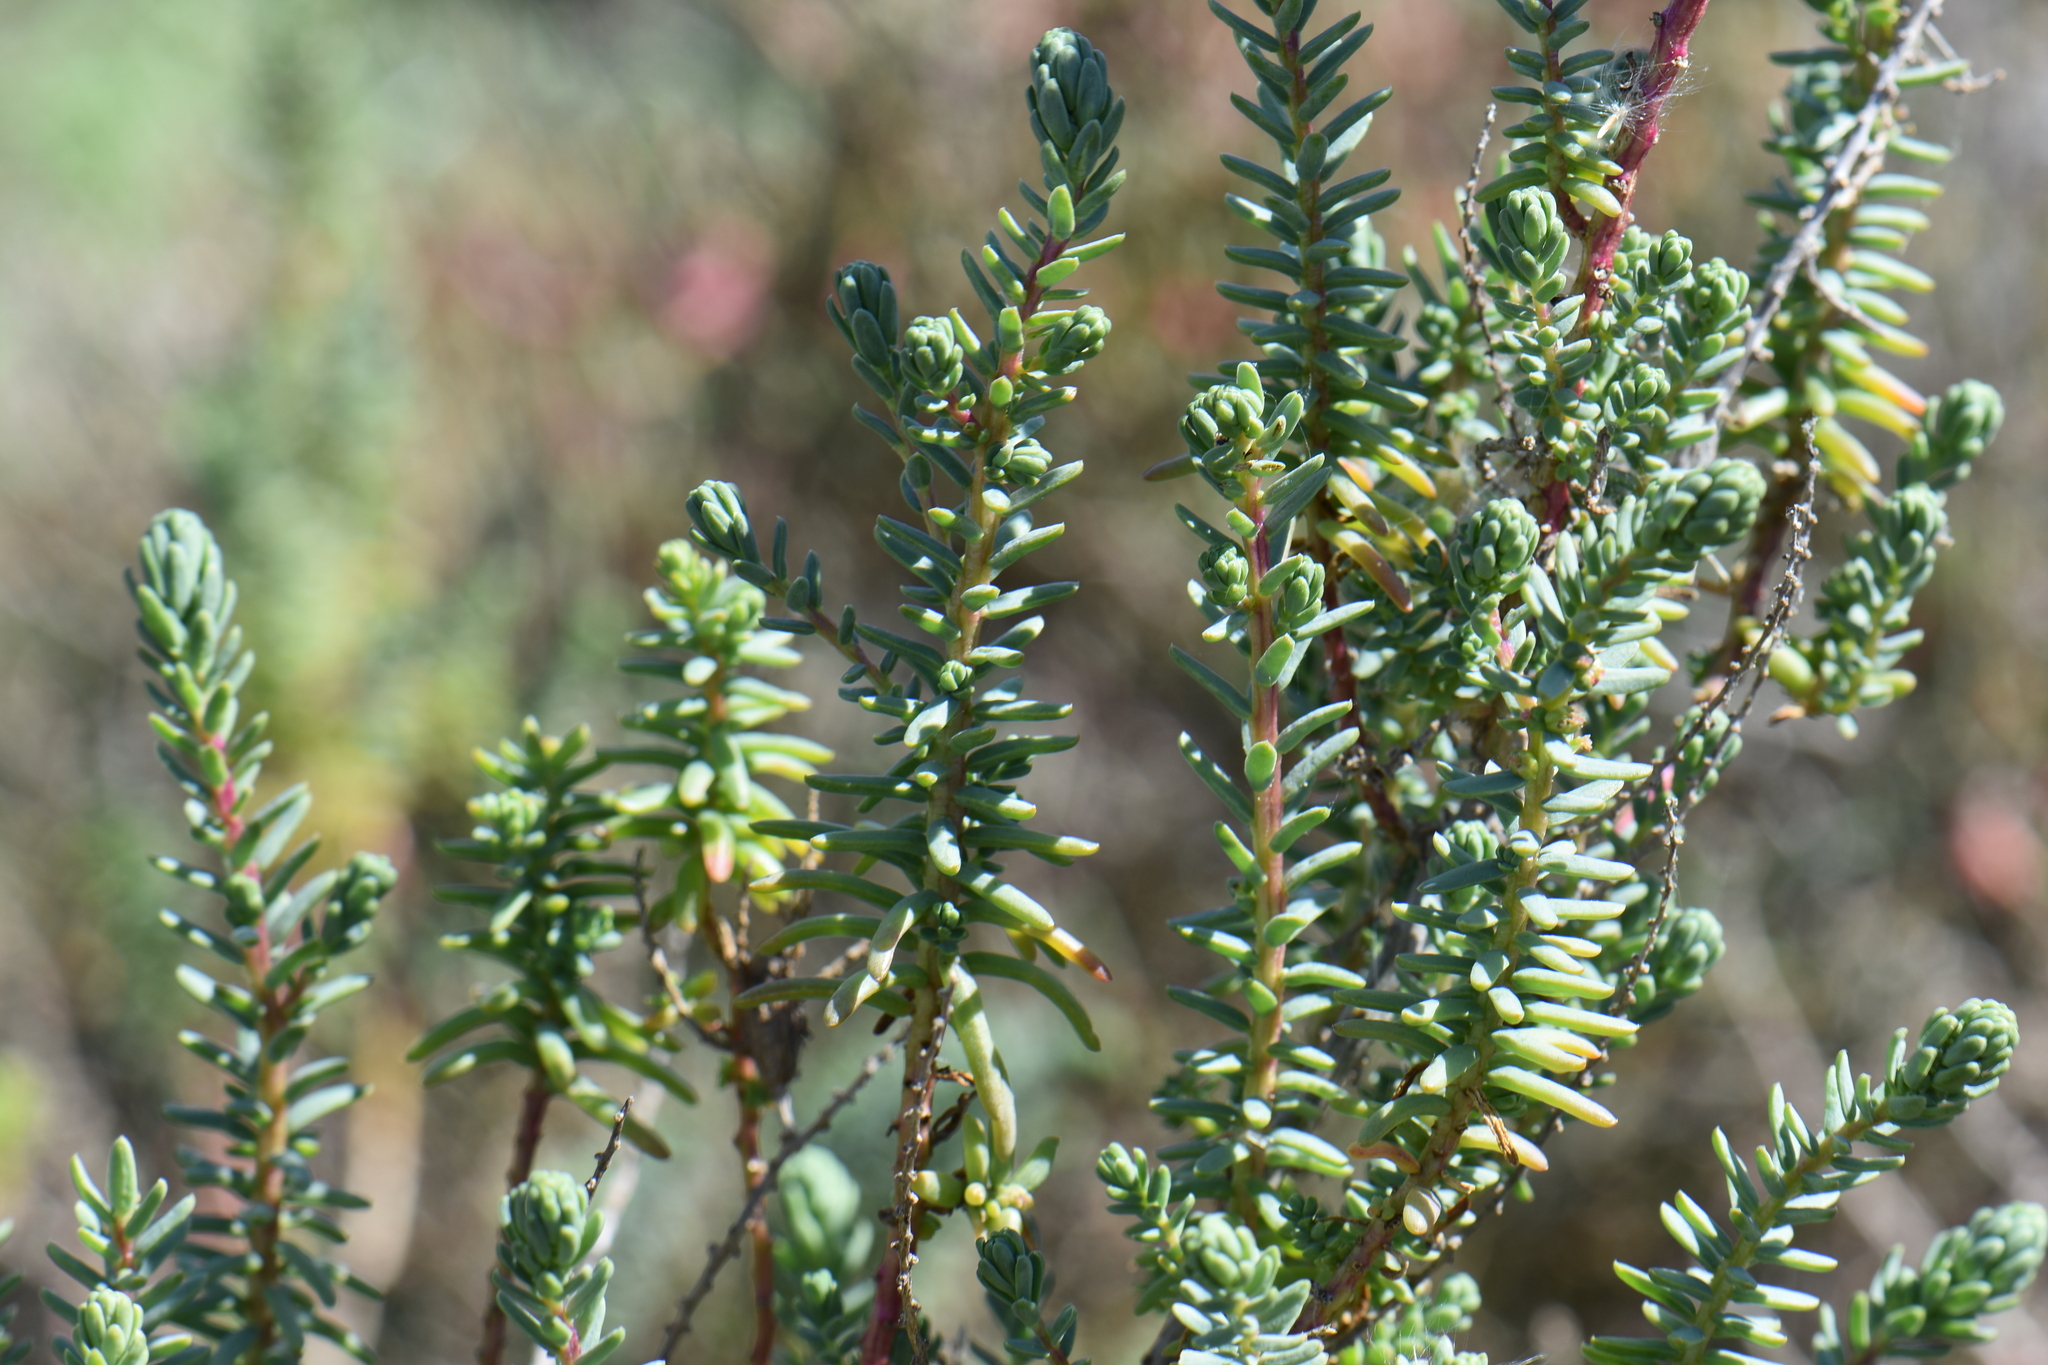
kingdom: Plantae
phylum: Tracheophyta
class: Magnoliopsida
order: Caryophyllales
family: Amaranthaceae
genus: Suaeda
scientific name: Suaeda vera
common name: Shrubby sea-blite
